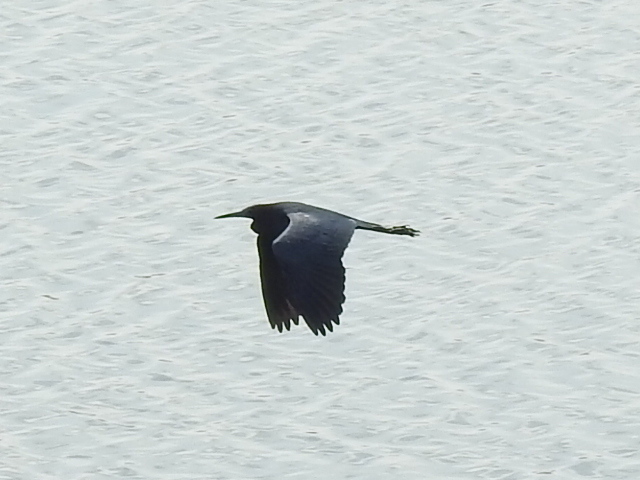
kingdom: Animalia
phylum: Chordata
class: Aves
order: Pelecaniformes
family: Ardeidae
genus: Egretta
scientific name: Egretta caerulea
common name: Little blue heron
